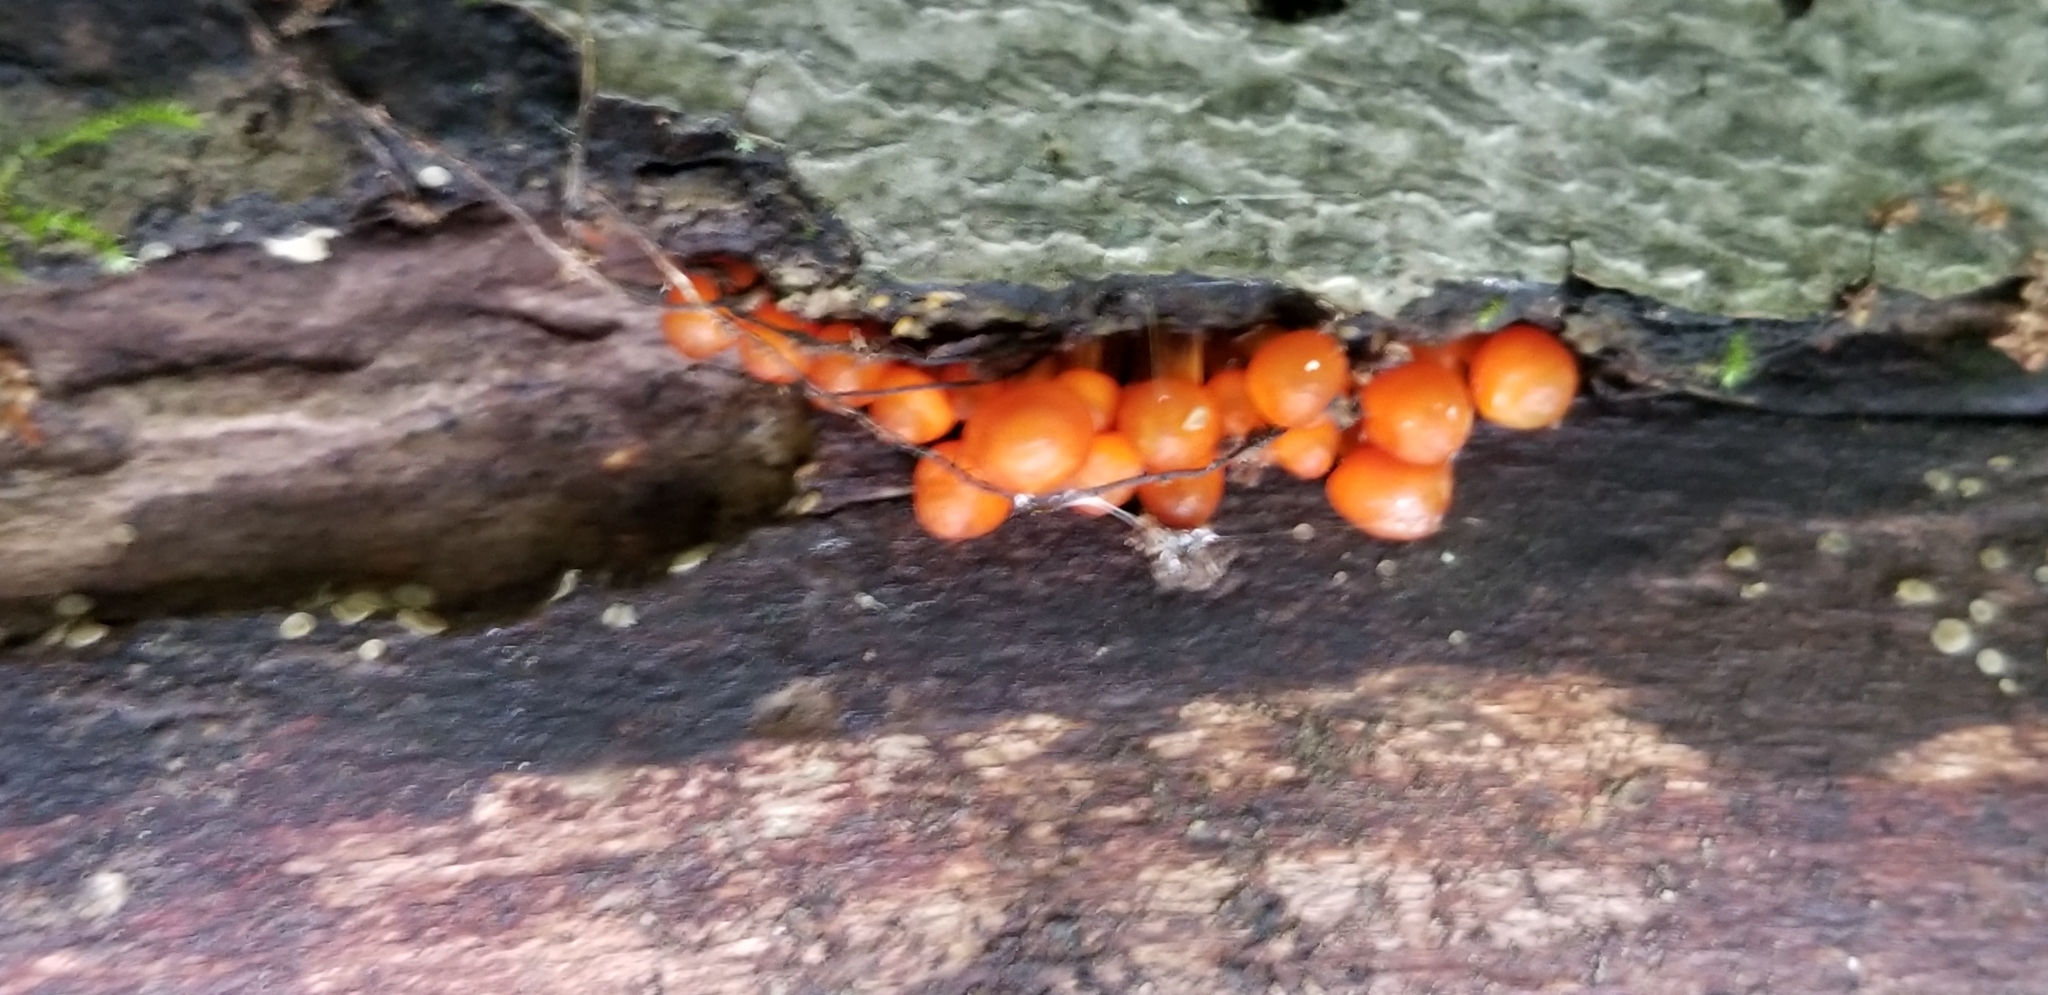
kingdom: Fungi
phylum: Basidiomycota
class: Agaricomycetes
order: Agaricales
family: Mycenaceae
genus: Mycena
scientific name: Mycena leaiana
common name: Orange mycena
